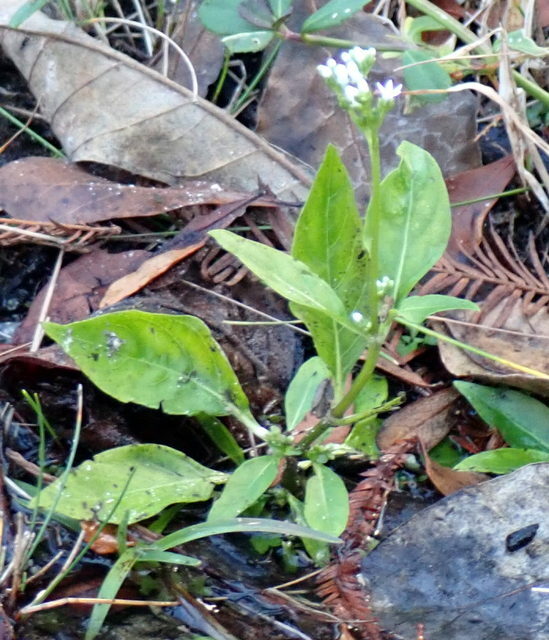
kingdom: Plantae
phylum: Tracheophyta
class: Magnoliopsida
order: Gentianales
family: Loganiaceae
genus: Mitreola
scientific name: Mitreola petiolata
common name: Lax hornpod
